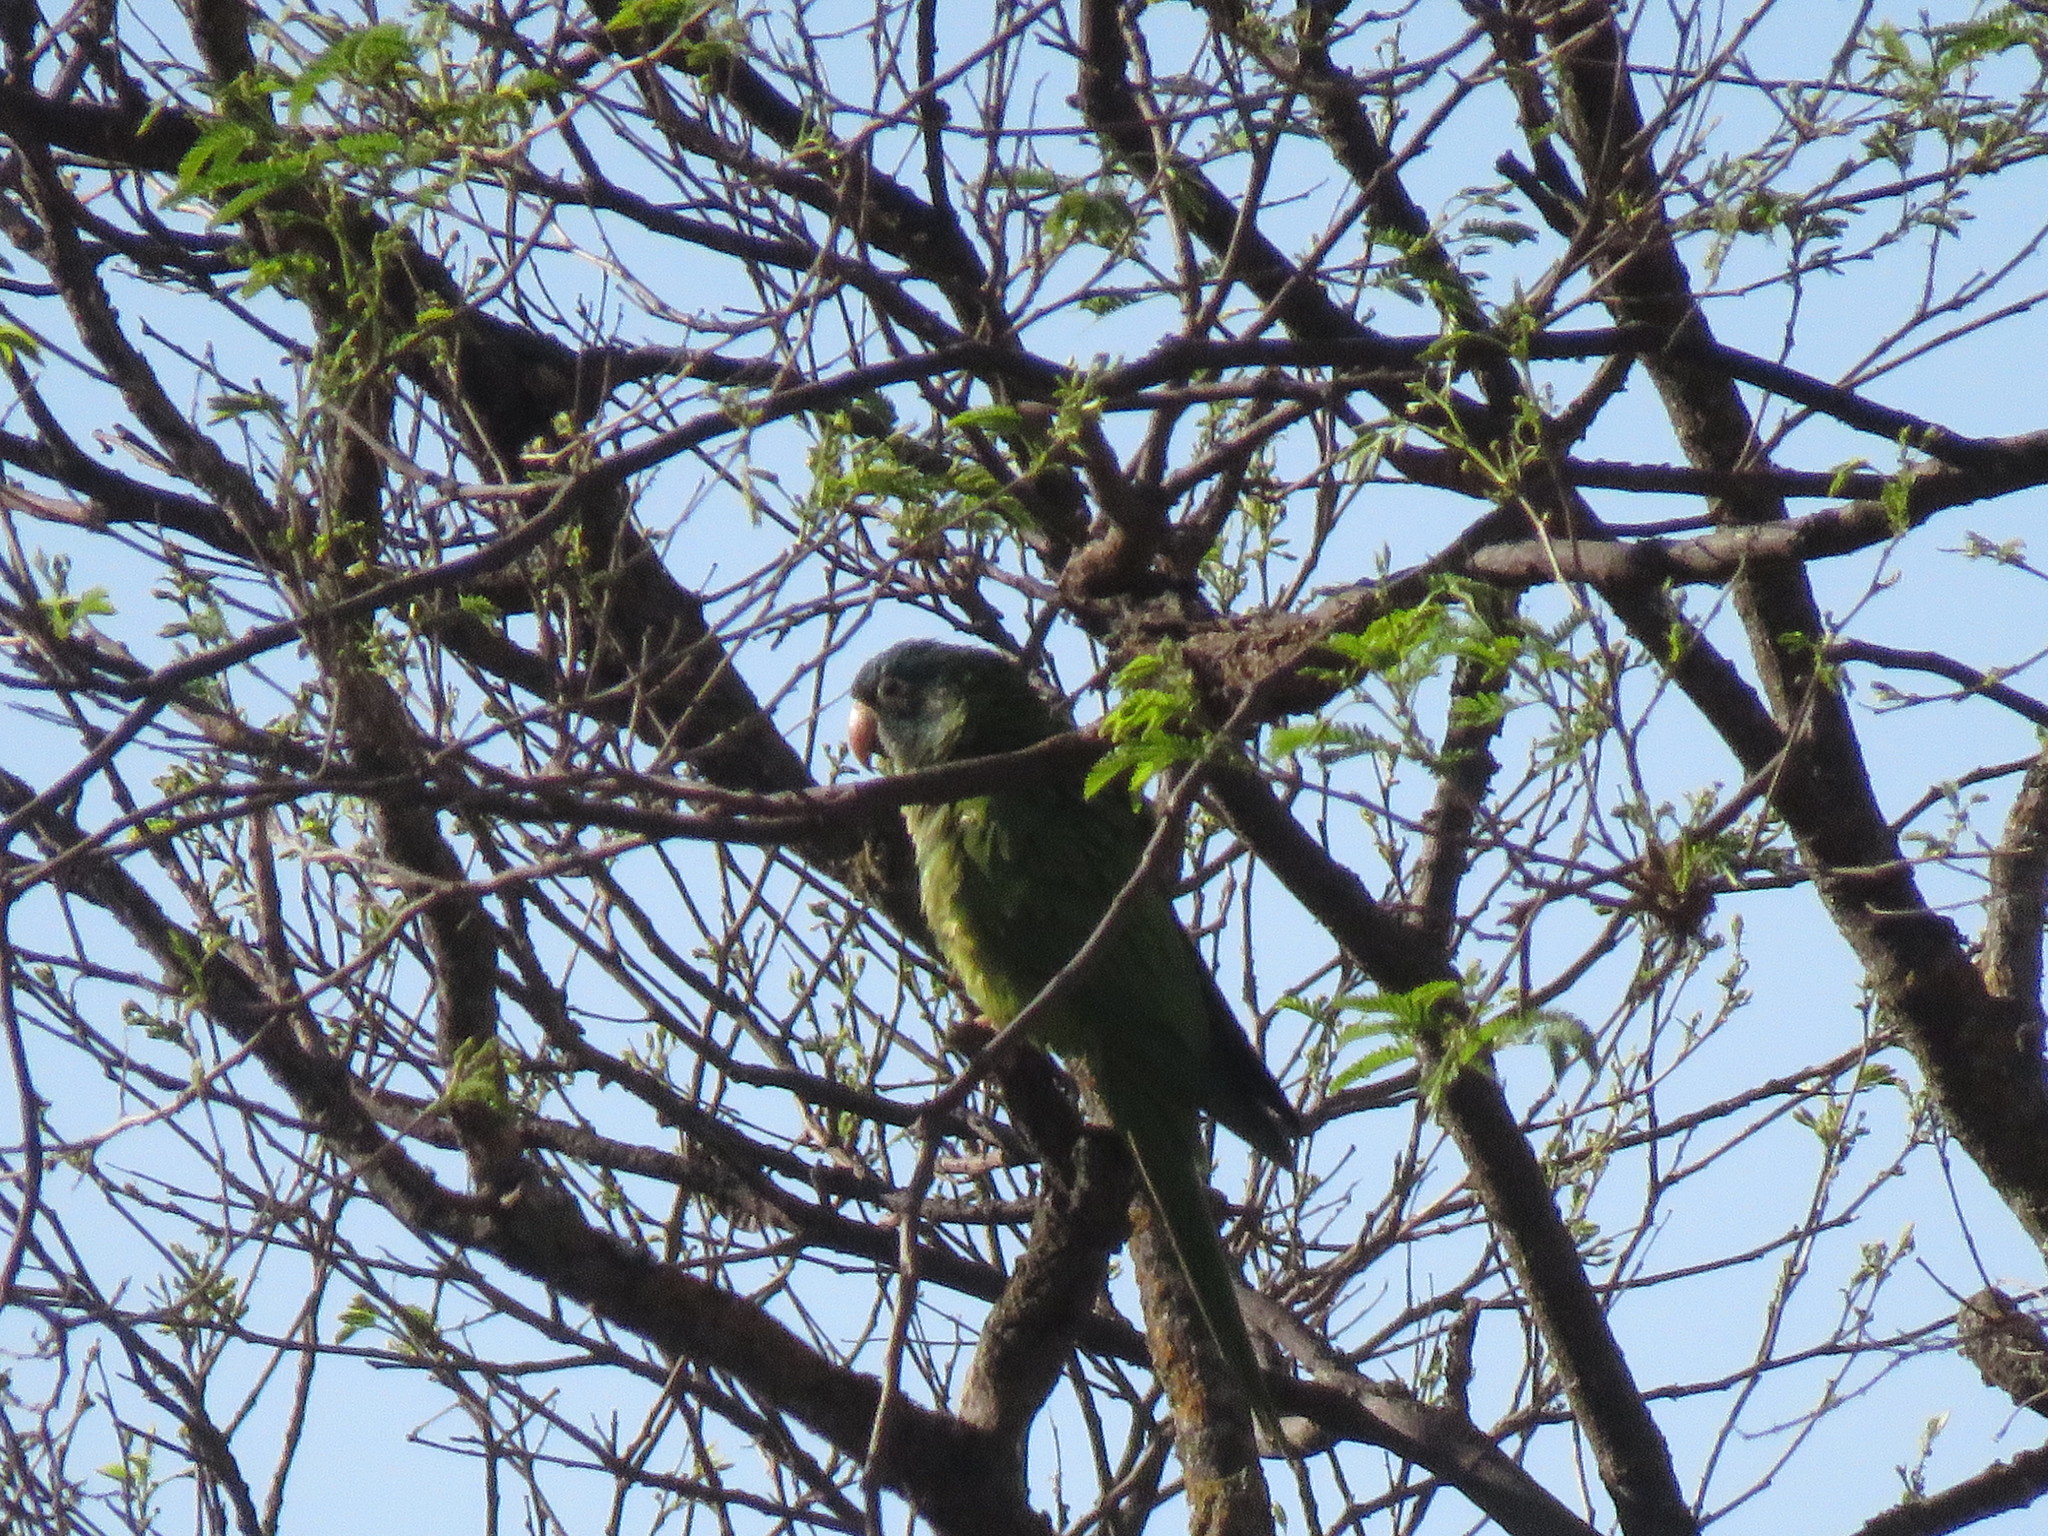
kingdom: Animalia
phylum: Chordata
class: Aves
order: Psittaciformes
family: Psittacidae
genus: Aratinga
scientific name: Aratinga acuticaudata
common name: Blue-crowned parakeet
